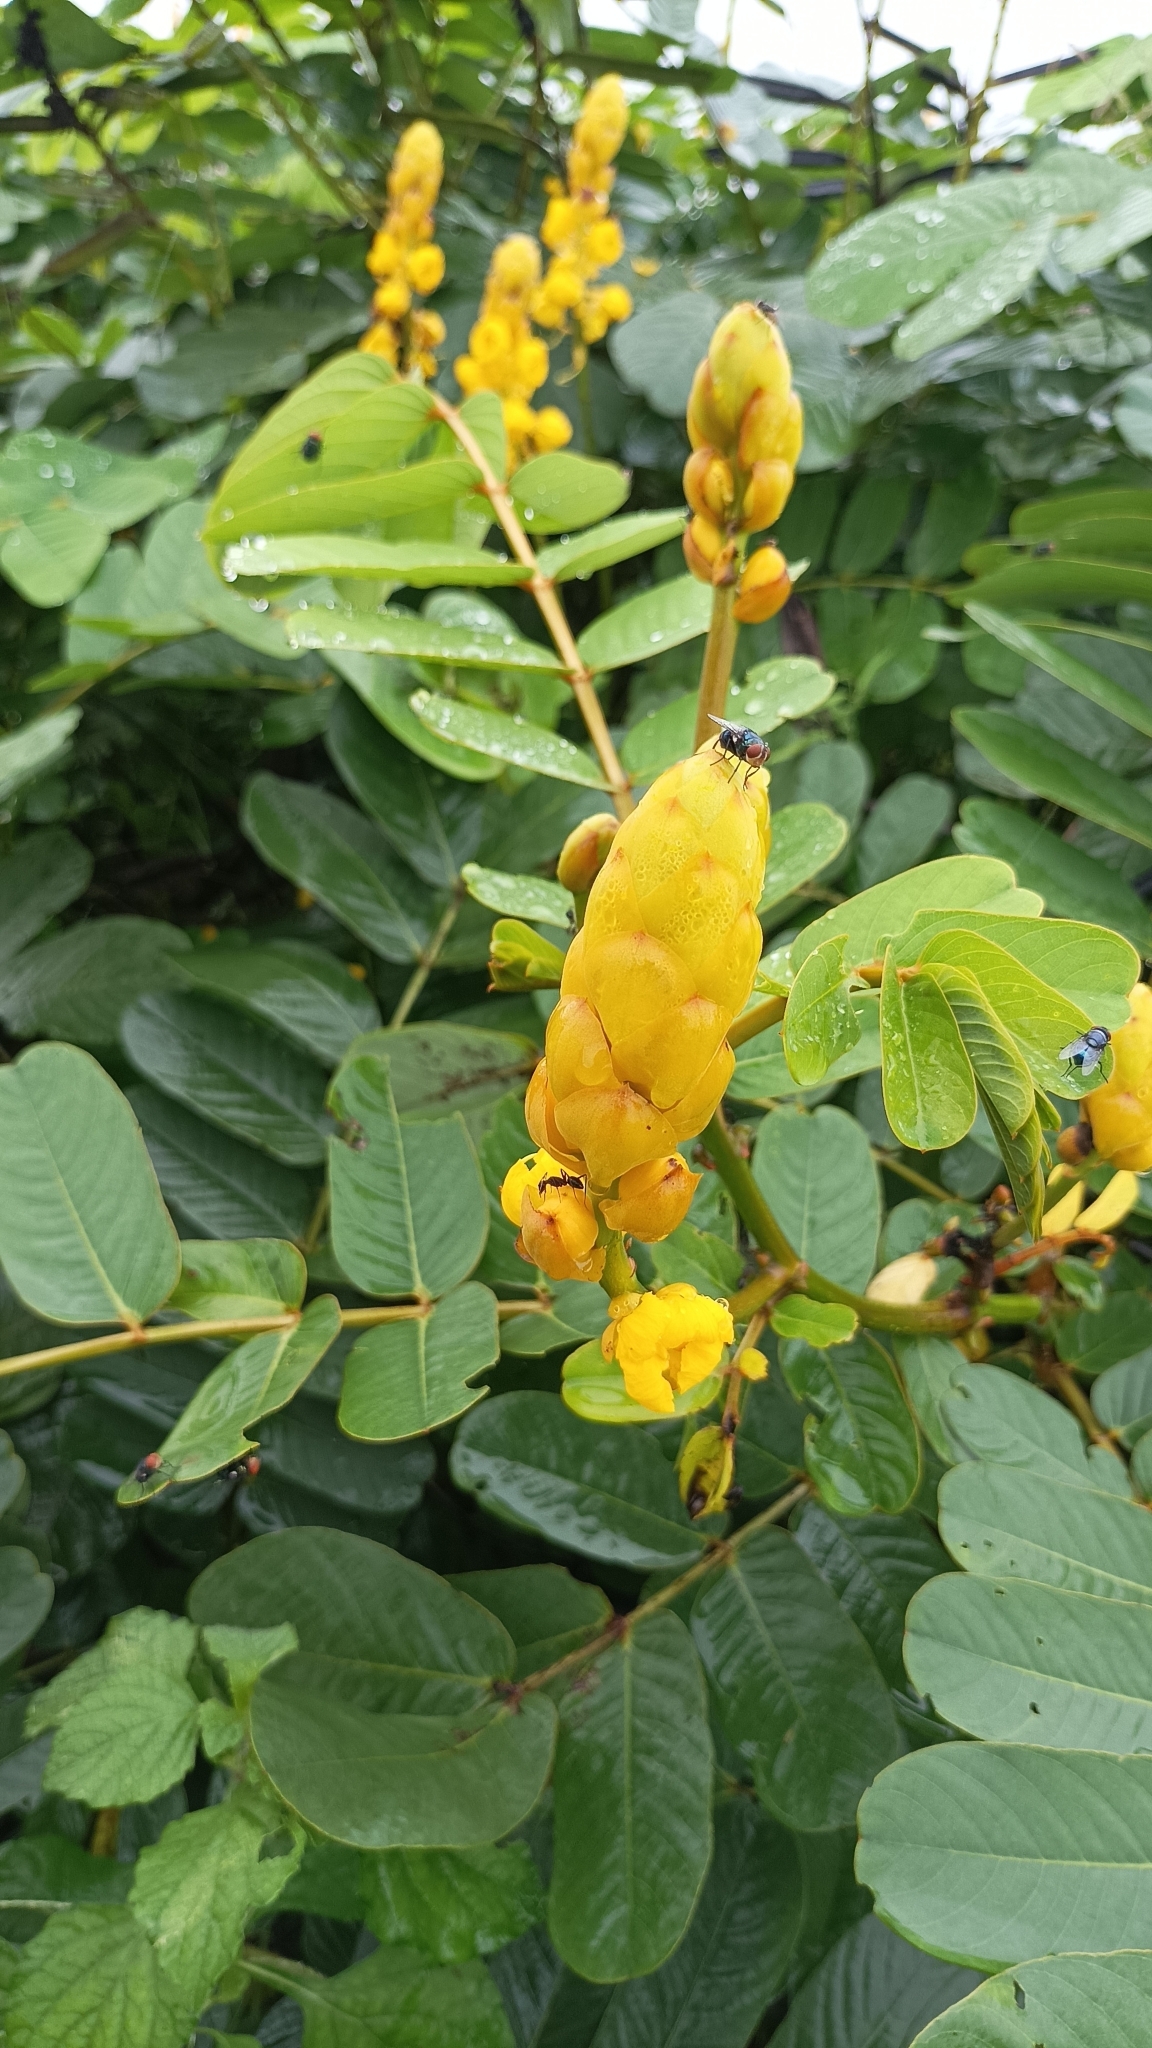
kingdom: Plantae
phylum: Tracheophyta
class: Magnoliopsida
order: Fabales
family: Fabaceae
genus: Senna
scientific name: Senna alata
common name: Emperor's candlesticks
